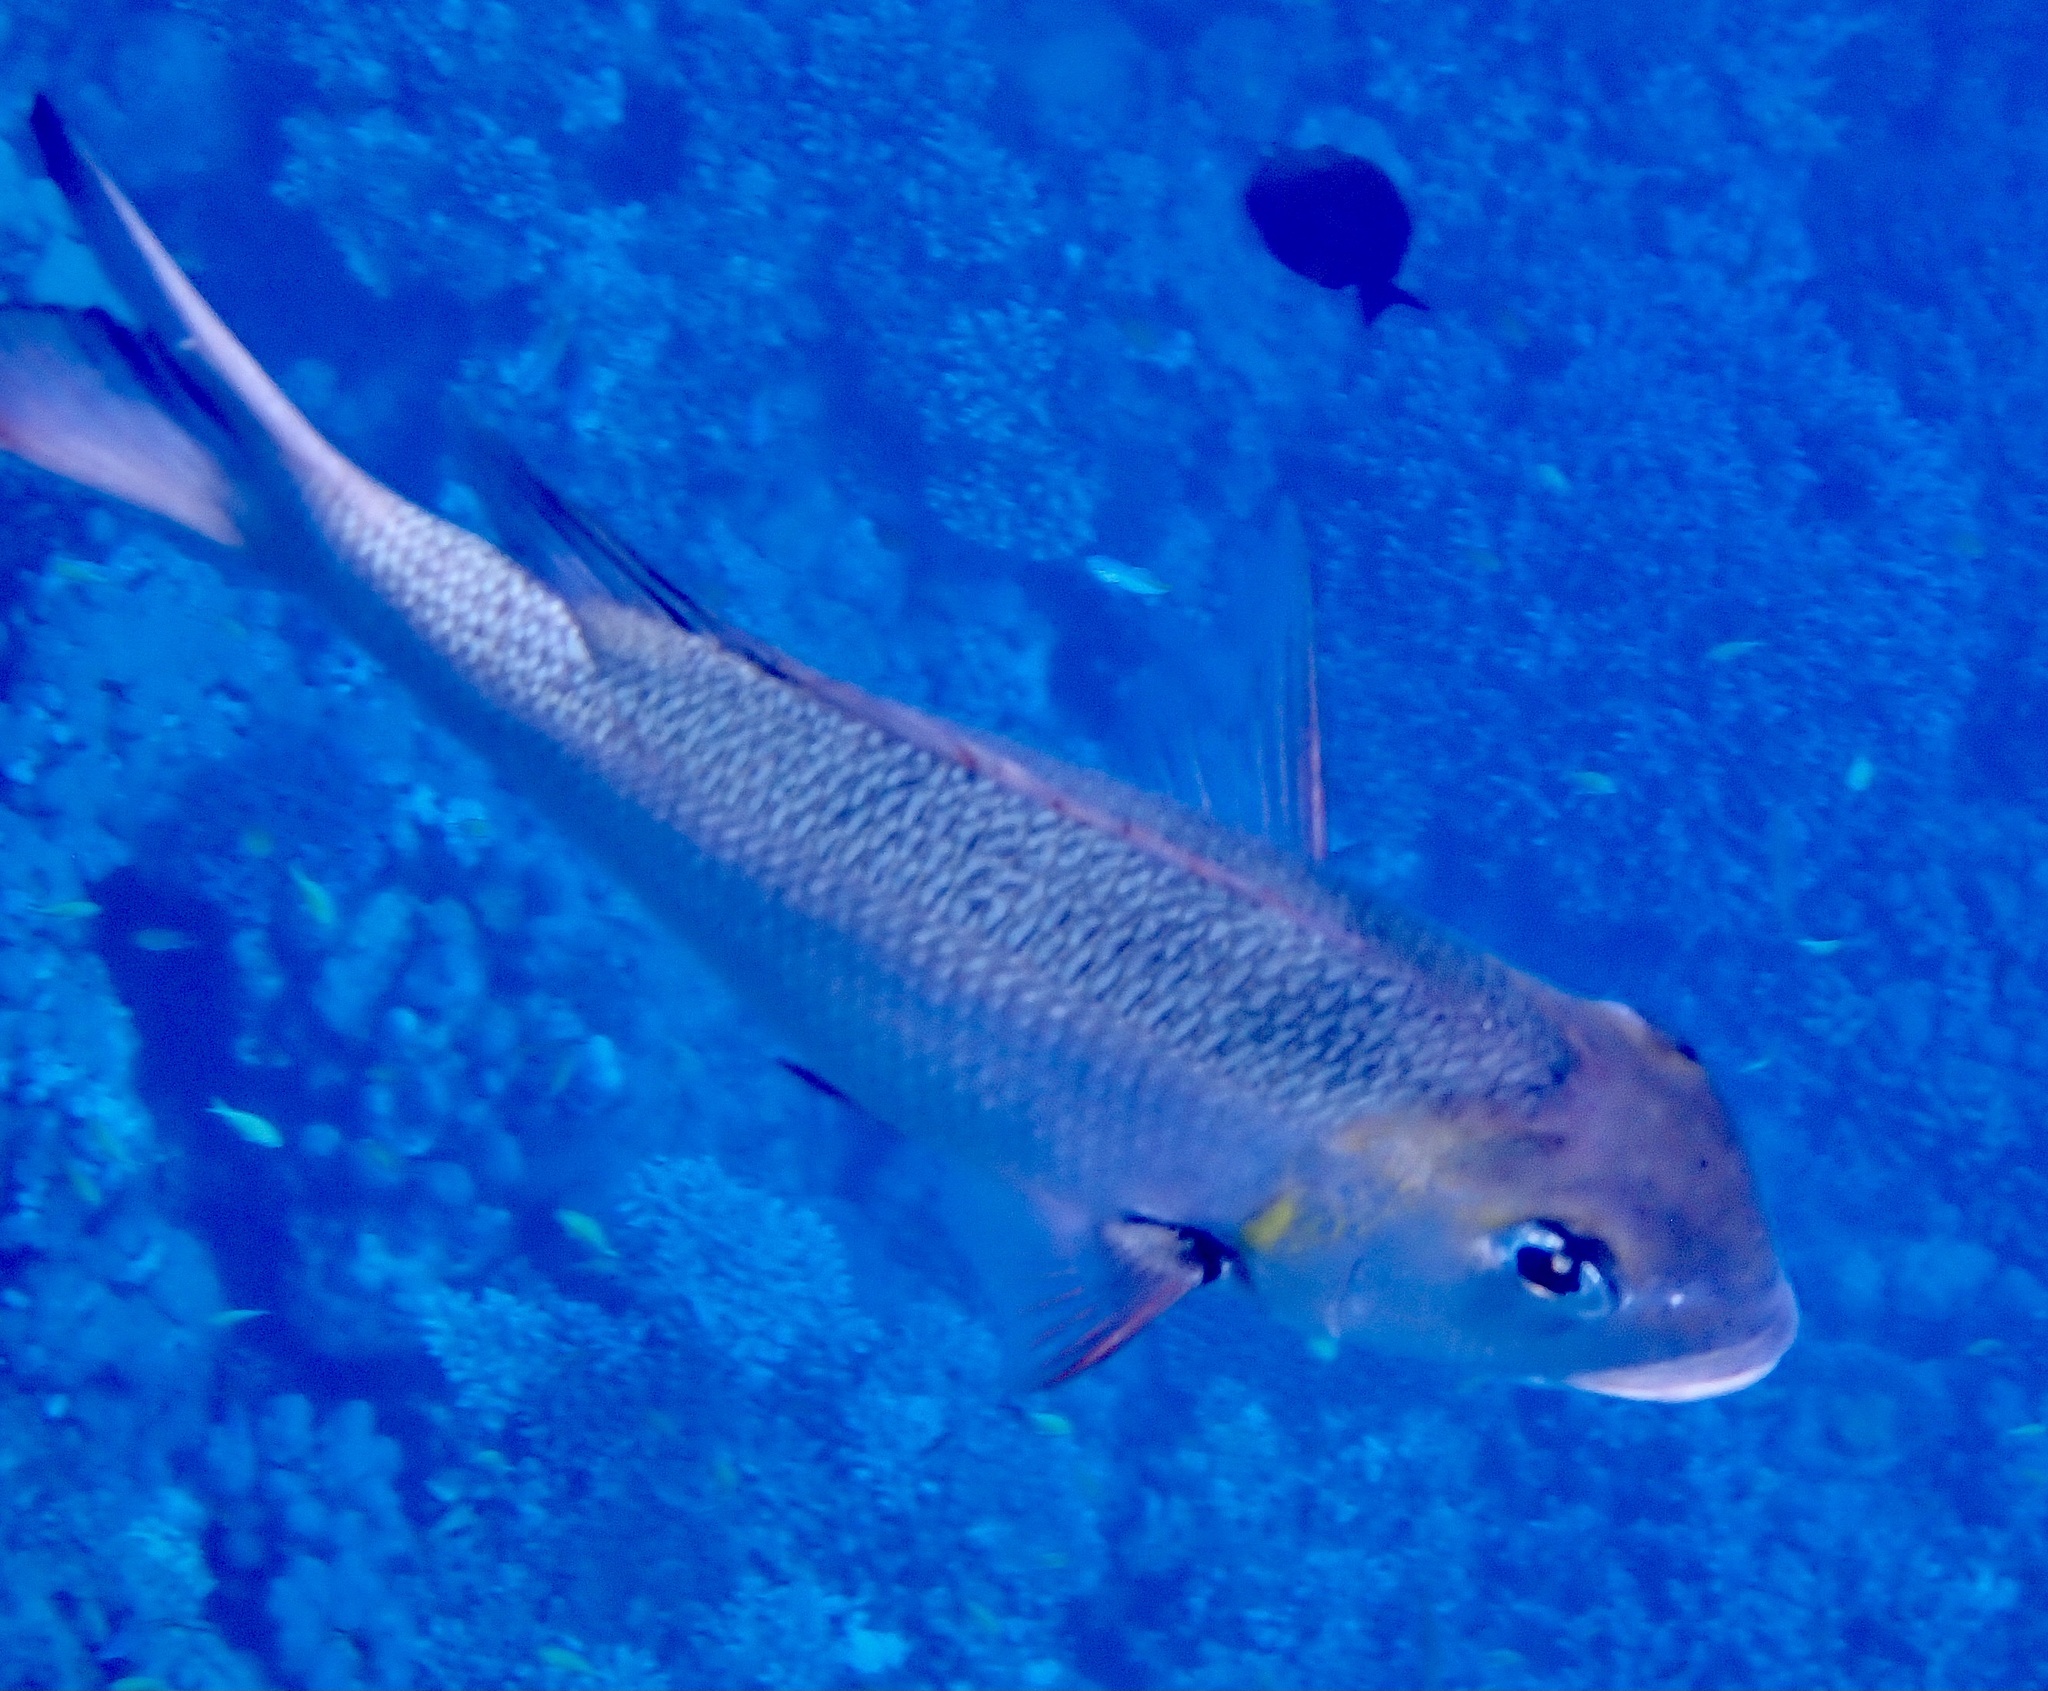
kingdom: Animalia
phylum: Chordata
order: Perciformes
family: Lethrinidae
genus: Monotaxis
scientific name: Monotaxis grandoculis
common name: Bigeye emperor
